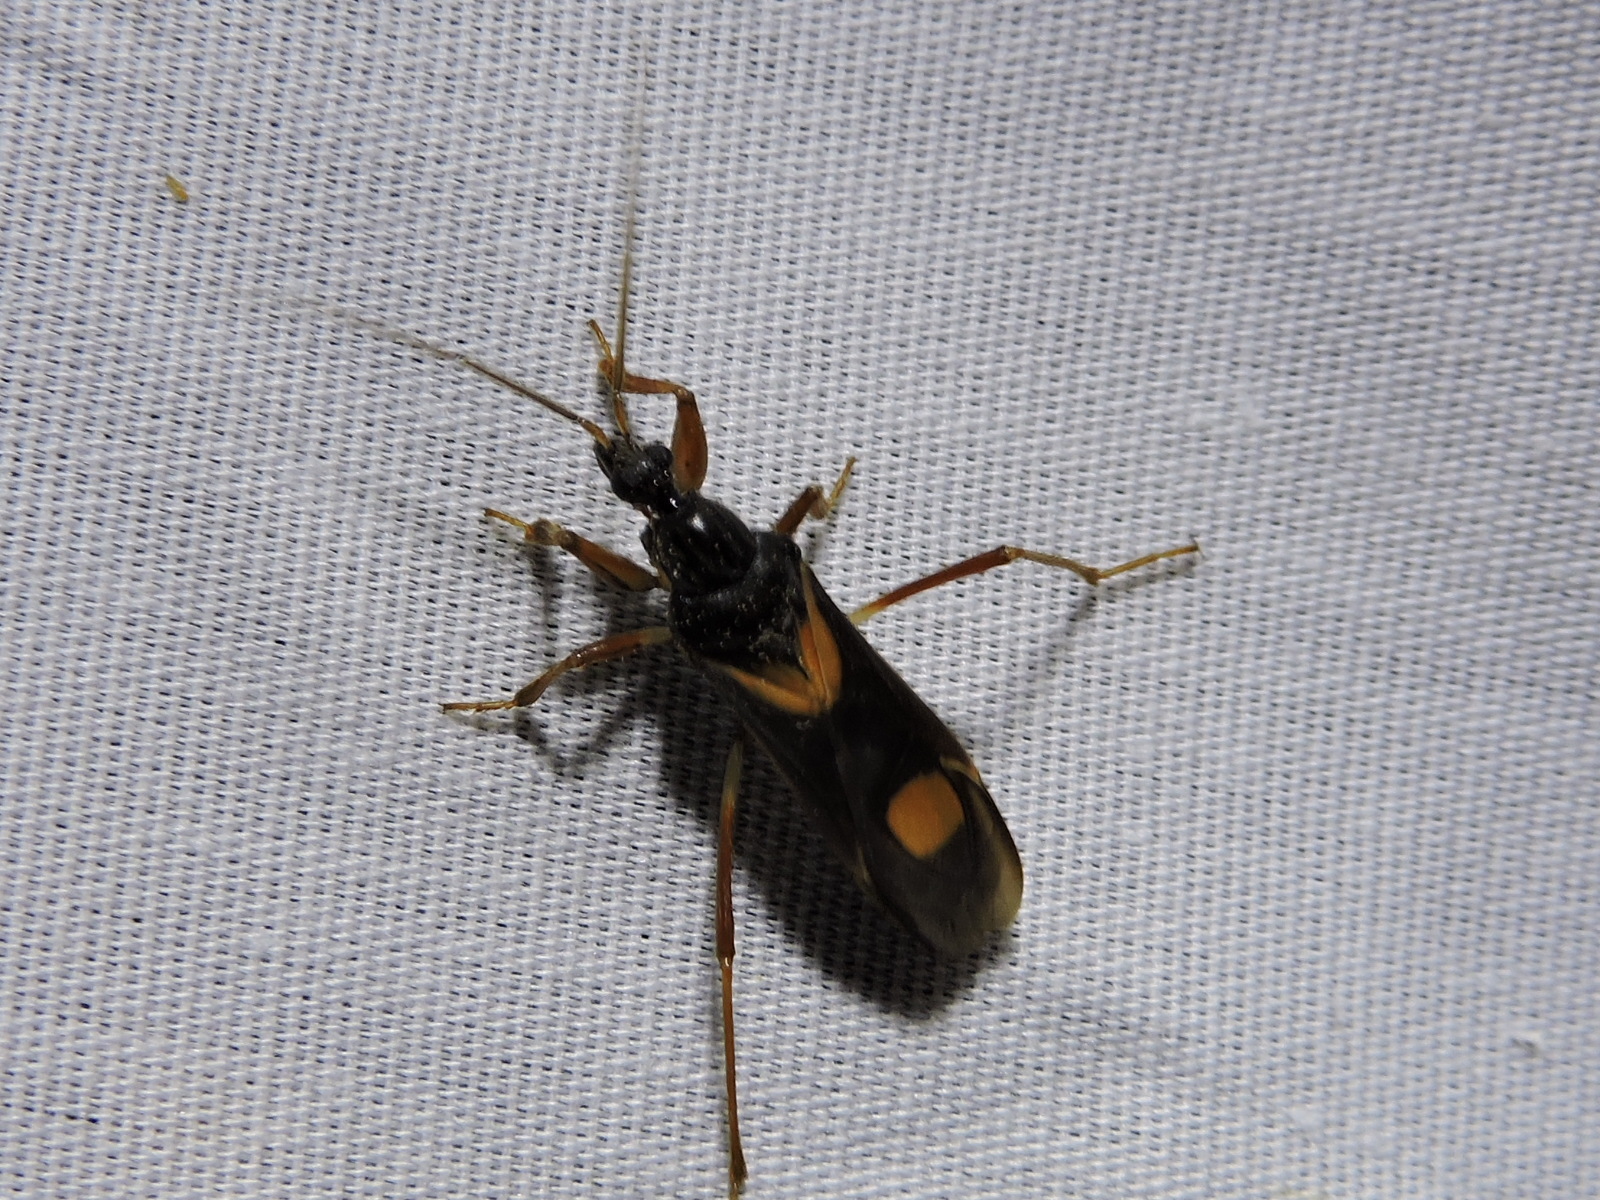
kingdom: Animalia
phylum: Arthropoda
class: Insecta
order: Hemiptera
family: Reduviidae
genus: Rasahus
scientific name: Rasahus hamatus
